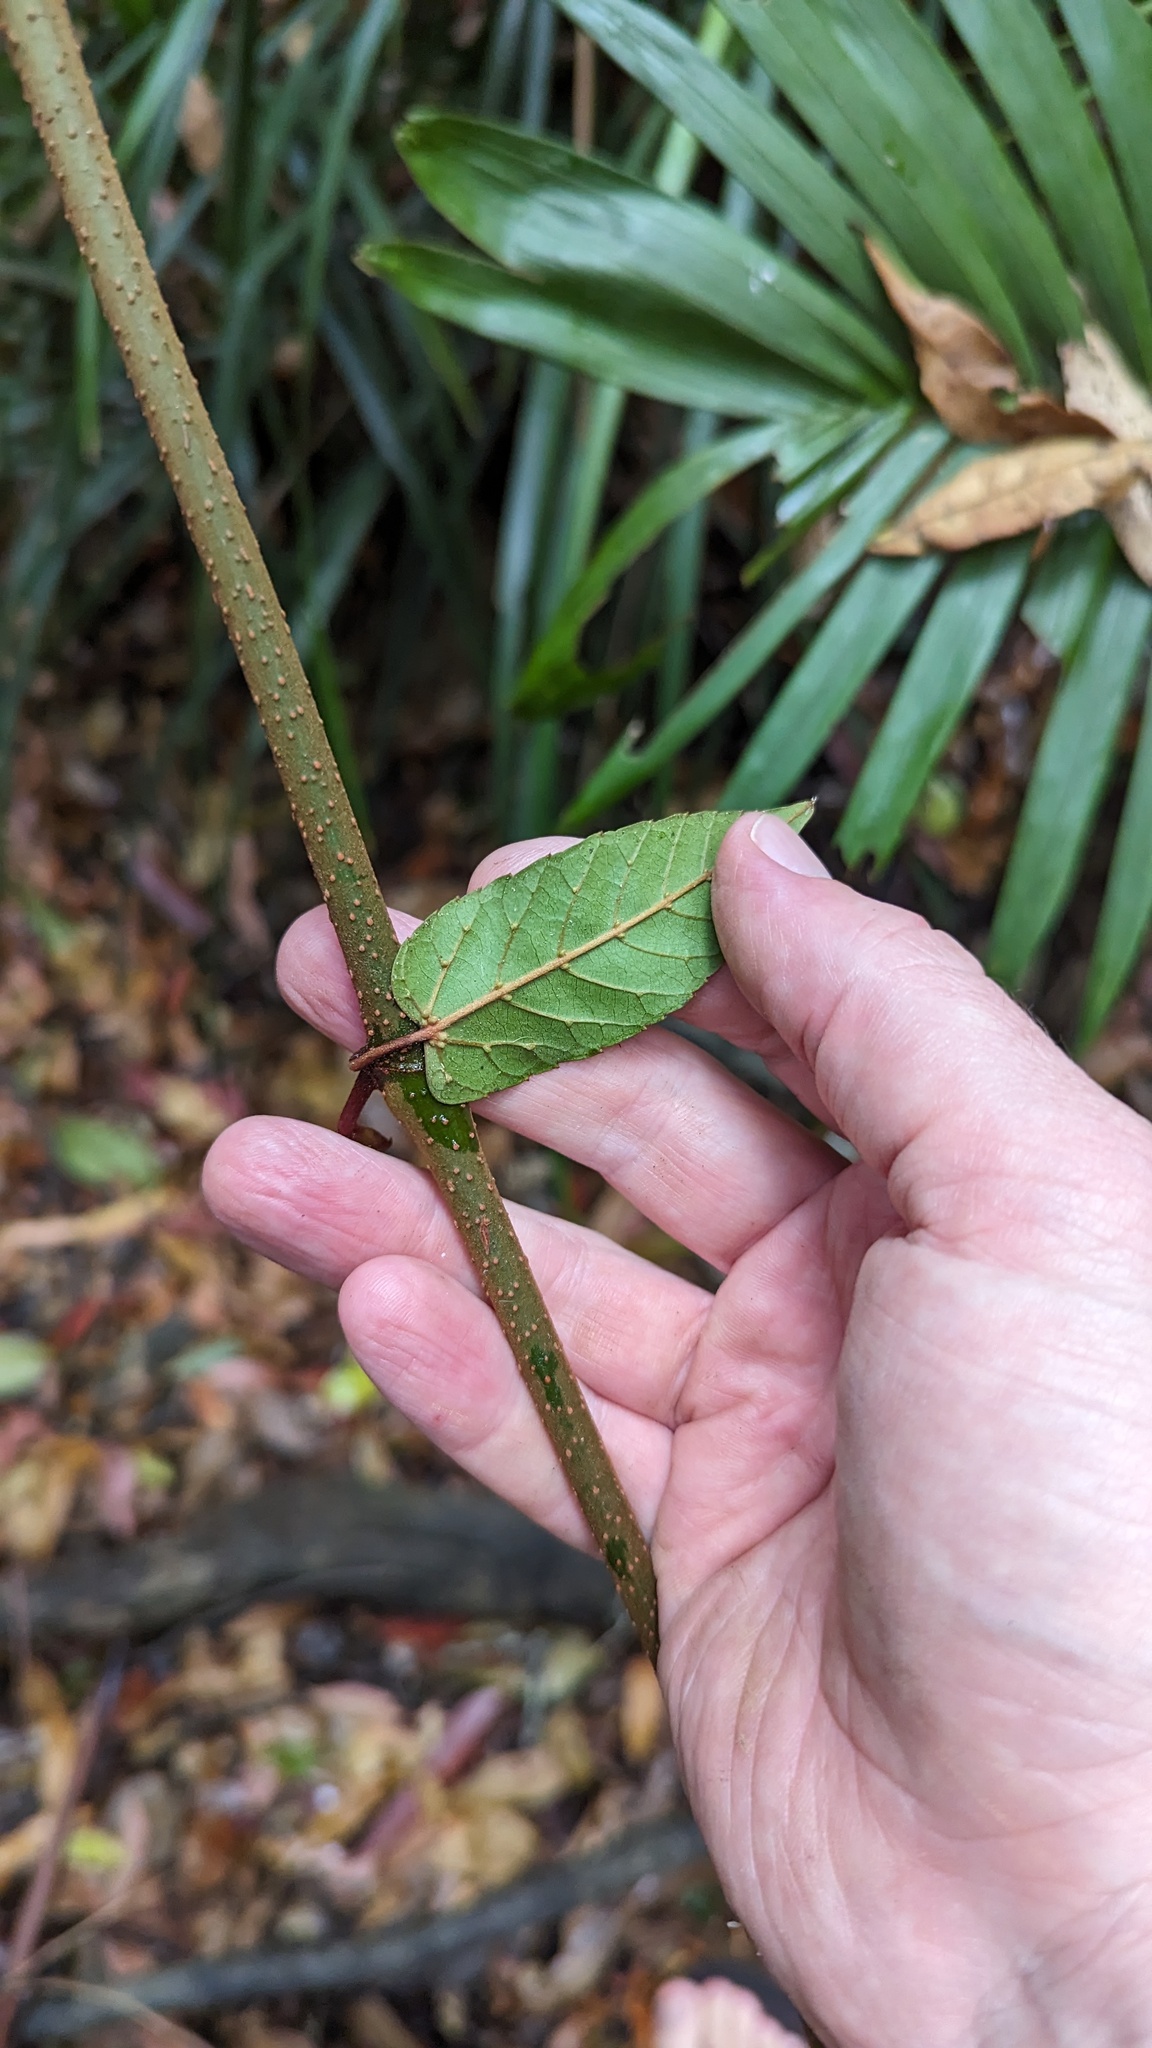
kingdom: Plantae
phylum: Tracheophyta
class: Magnoliopsida
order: Vitales
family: Vitaceae
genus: Cissus
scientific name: Cissus antarctica
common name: Kangaroo vine
